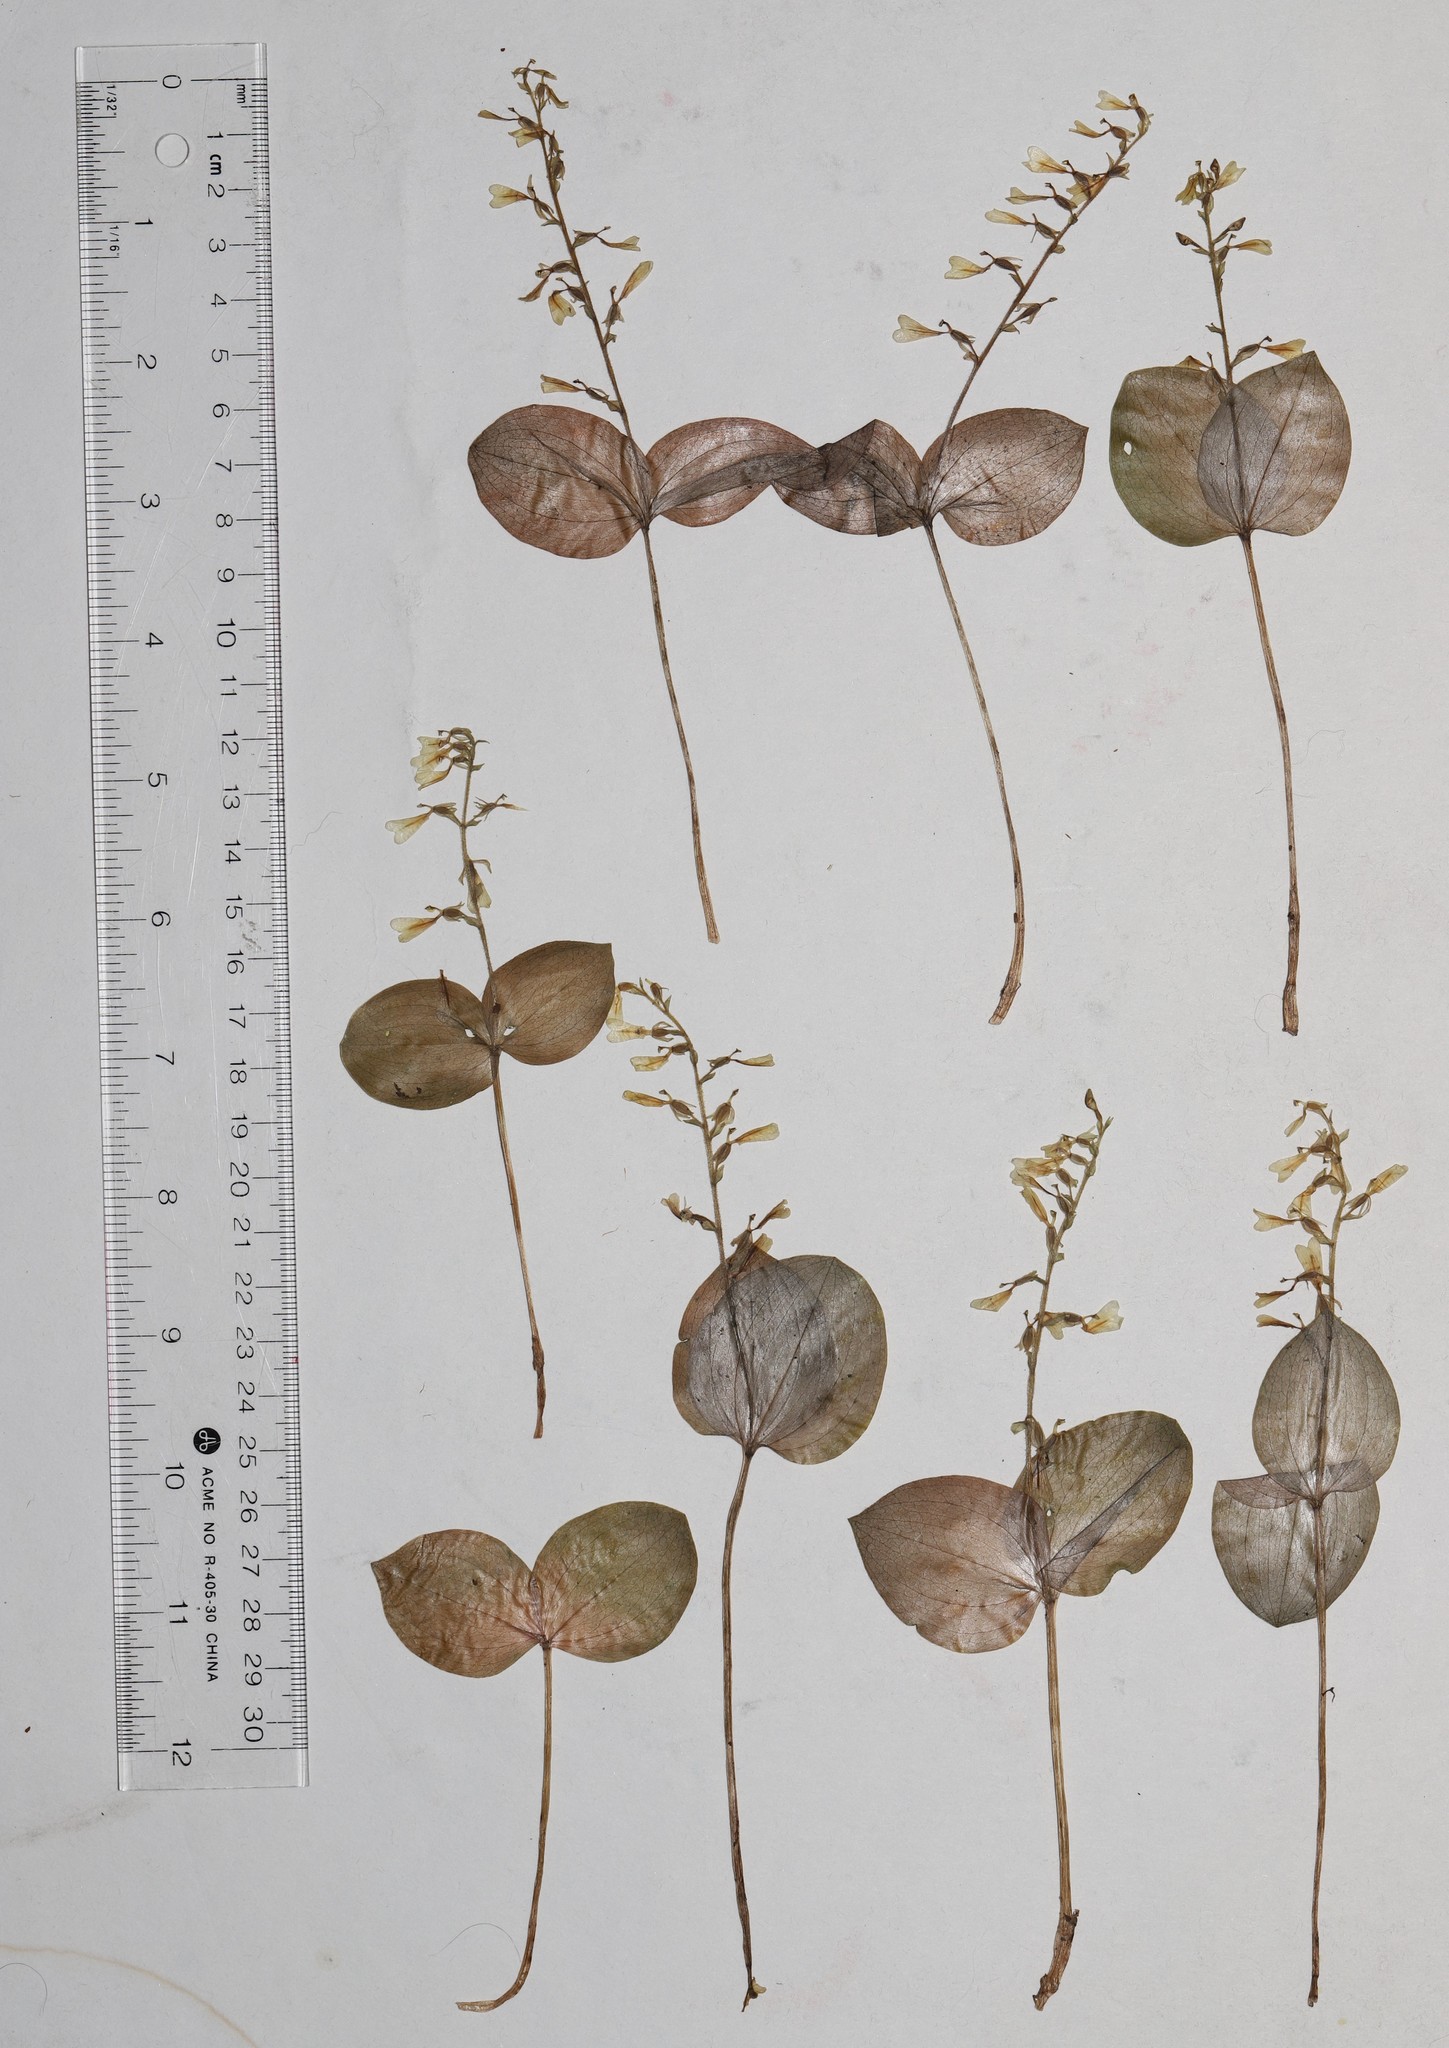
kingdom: Plantae
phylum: Tracheophyta
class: Liliopsida
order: Asparagales
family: Orchidaceae
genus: Neottia
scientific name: Neottia convallarioides
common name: Broadleaf twayblade
